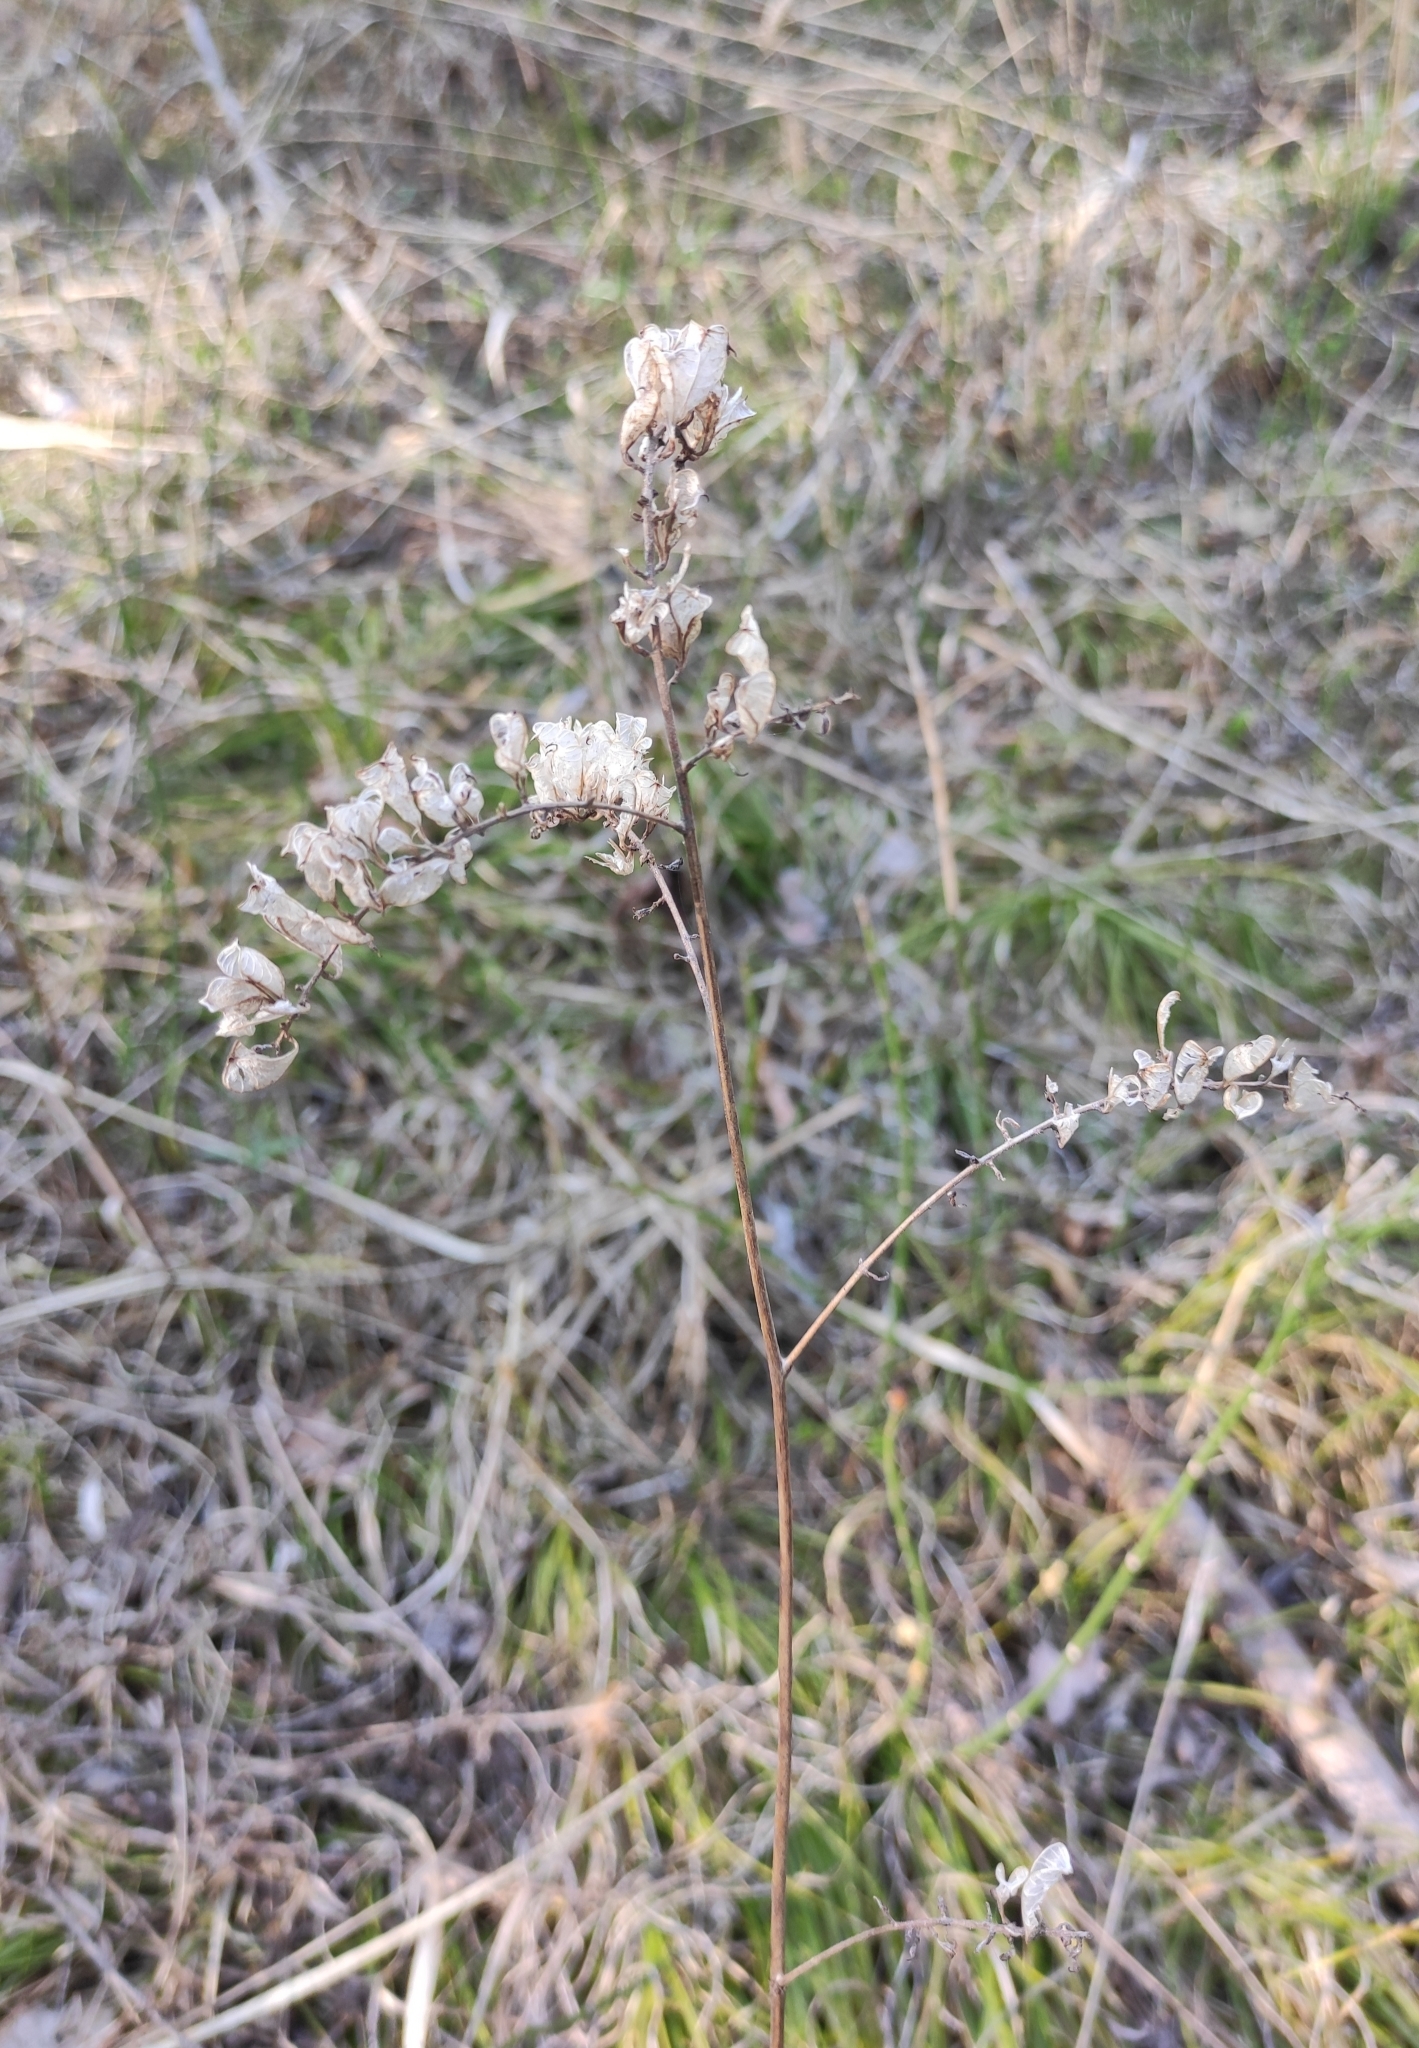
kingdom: Plantae
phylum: Tracheophyta
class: Magnoliopsida
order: Ranunculales
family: Ranunculaceae
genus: Actaea
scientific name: Actaea cimicifuga
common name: Chinese cimicifuga
